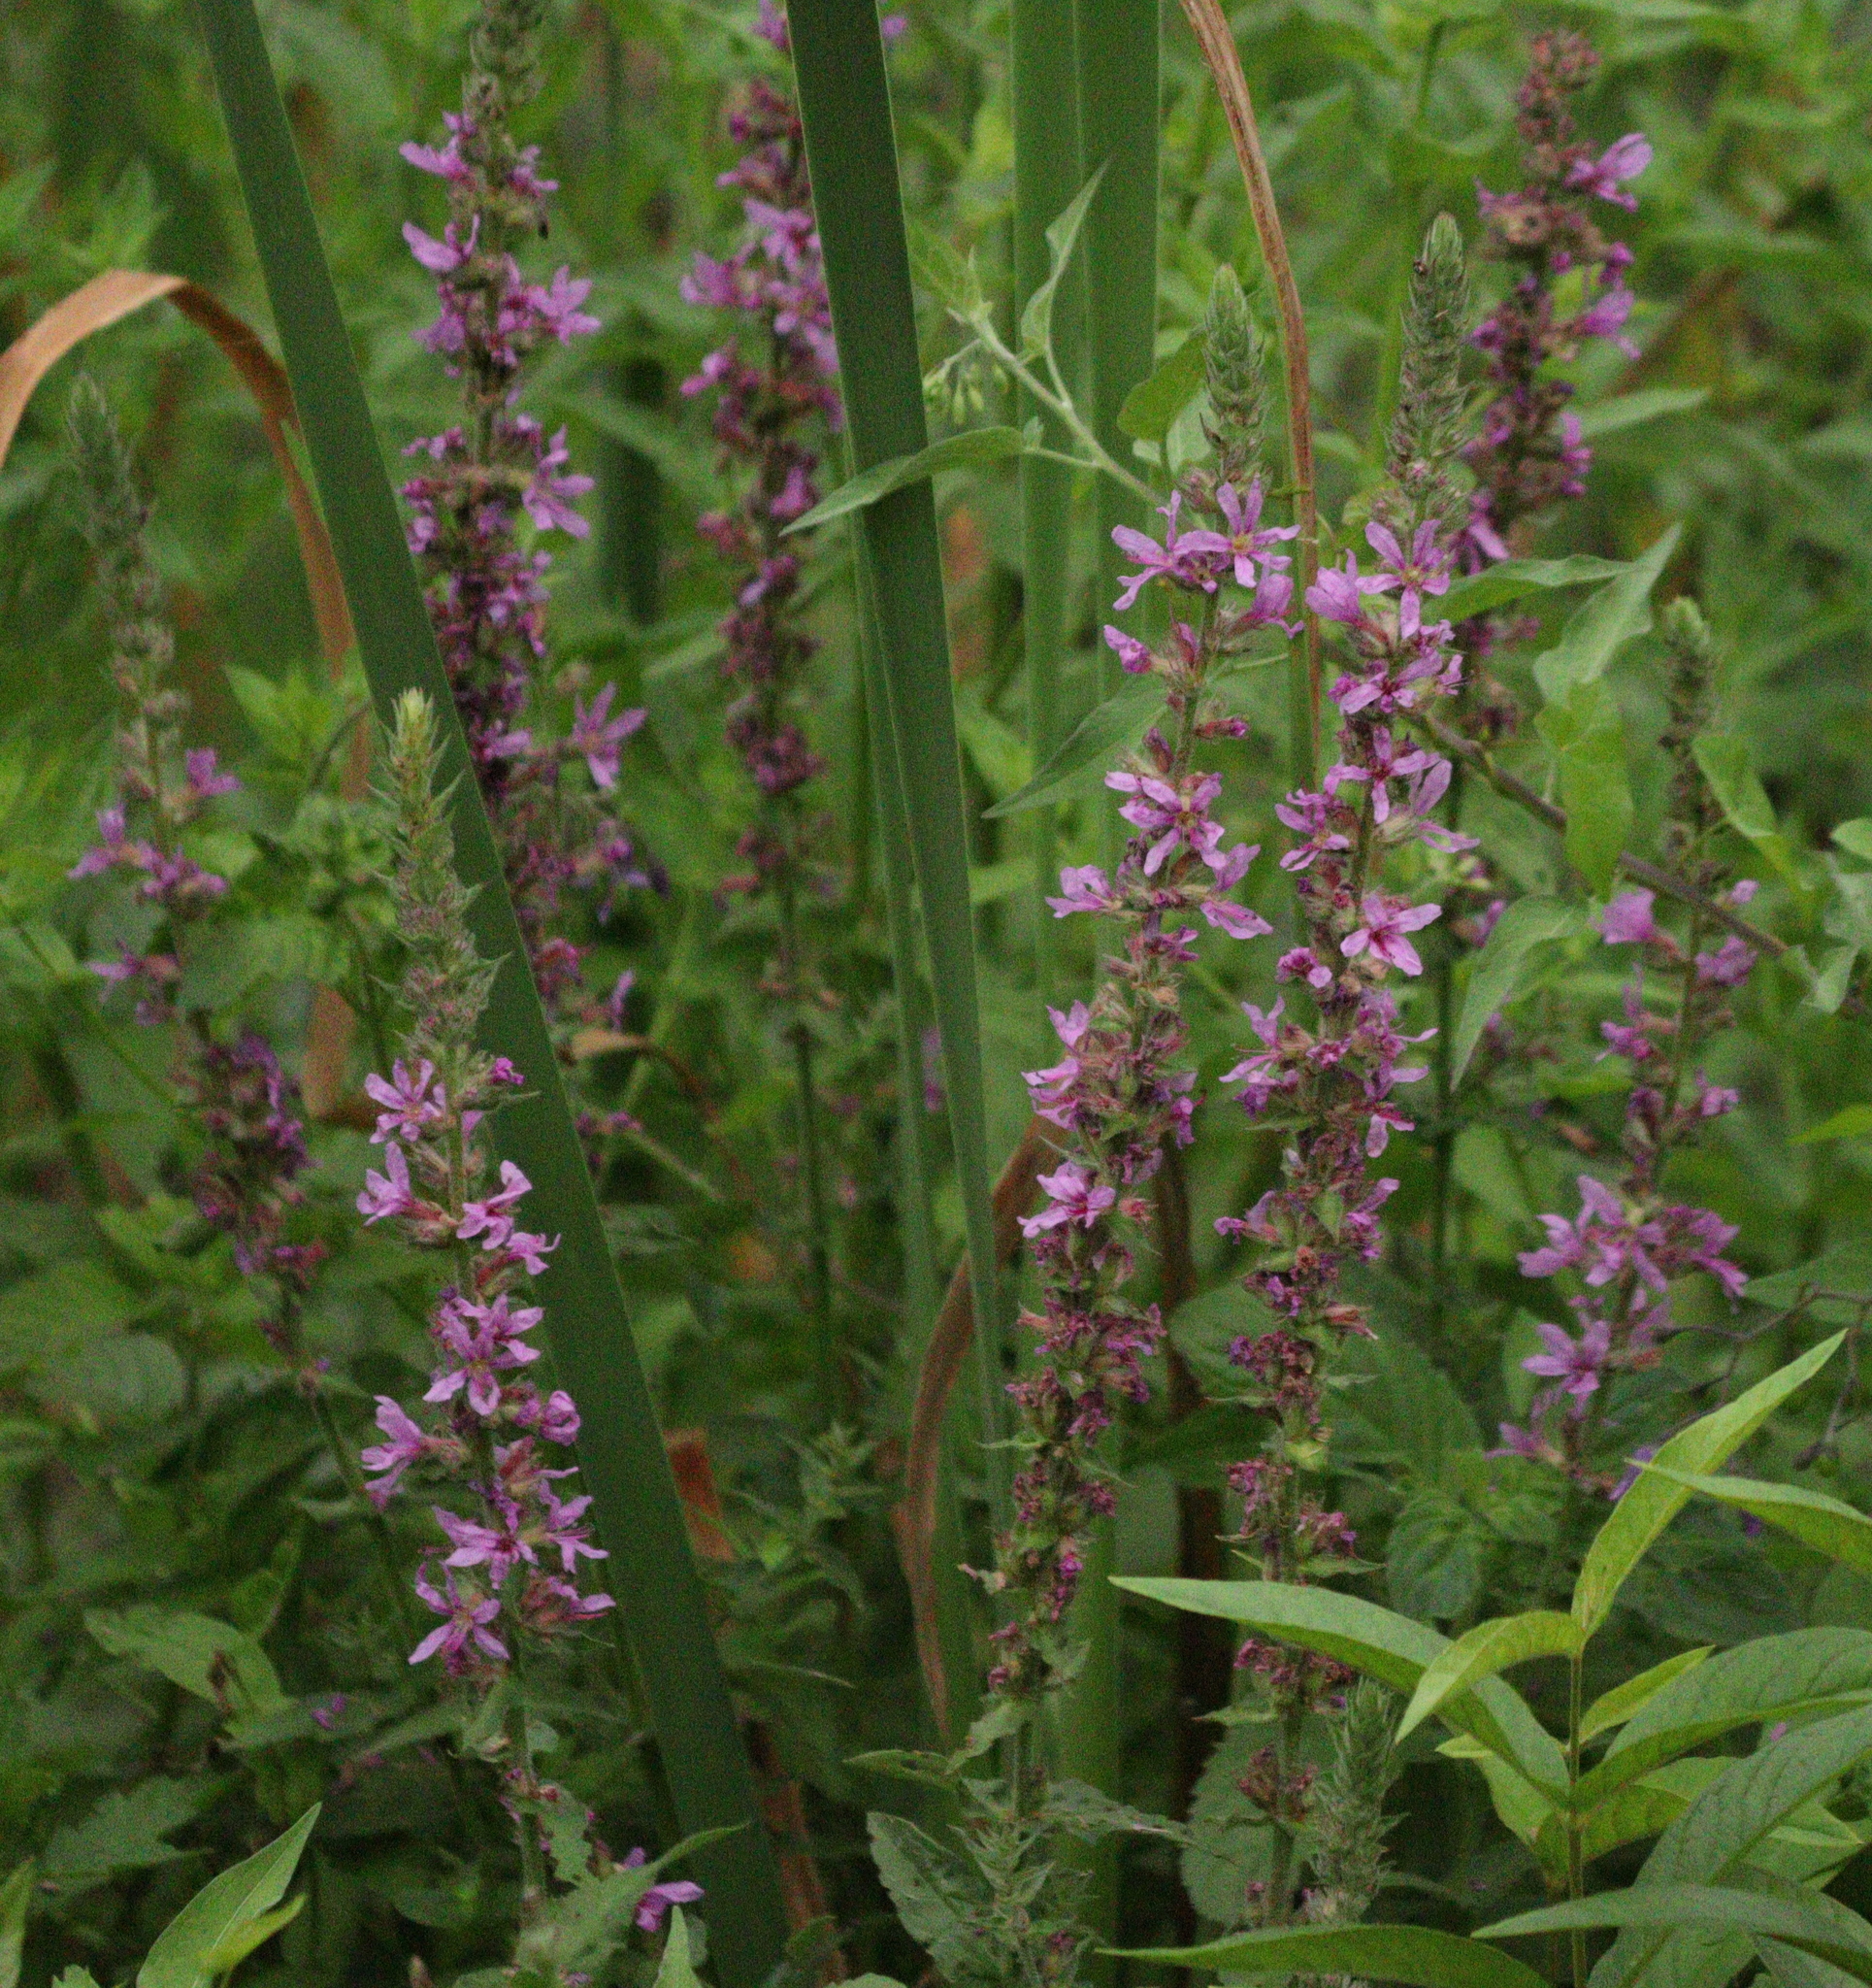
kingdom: Plantae
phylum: Tracheophyta
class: Magnoliopsida
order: Myrtales
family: Lythraceae
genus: Lythrum
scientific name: Lythrum salicaria
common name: Purple loosestrife
